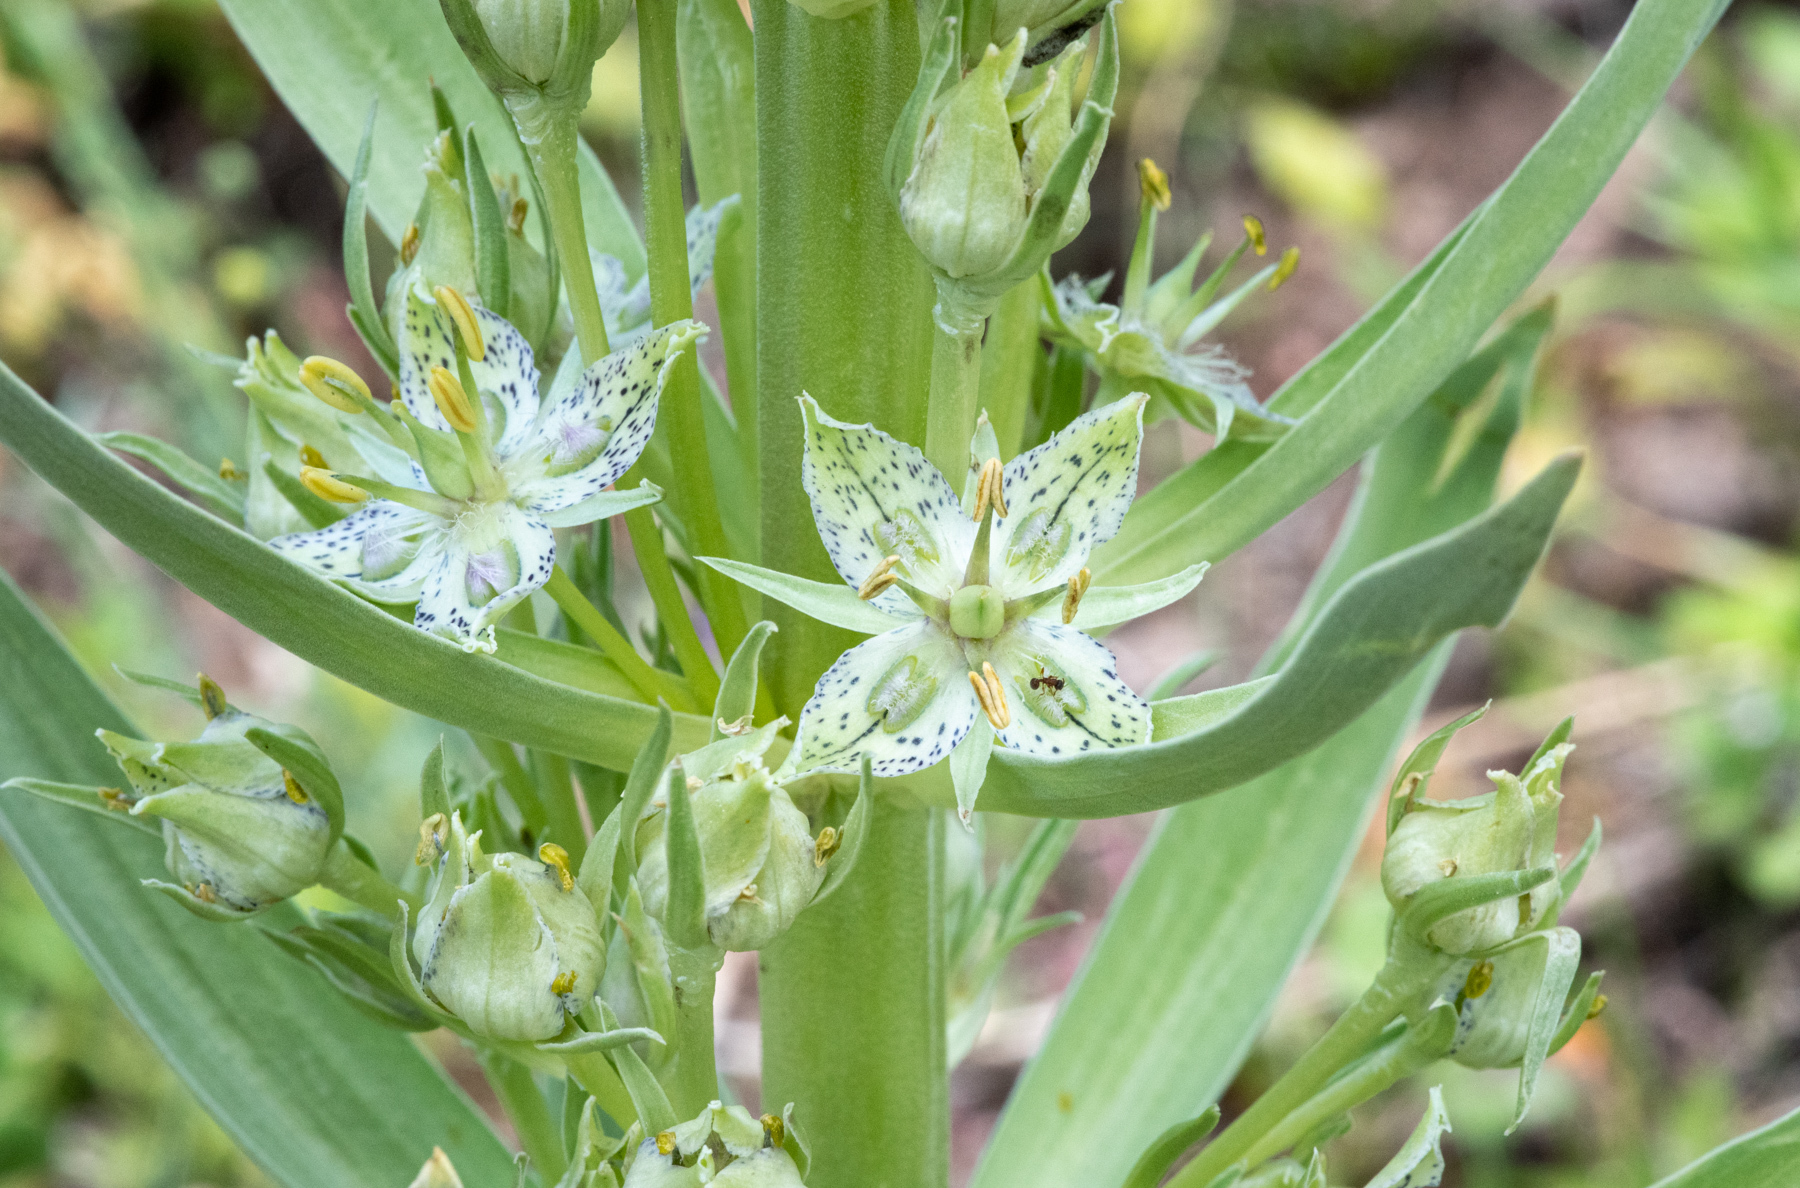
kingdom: Plantae
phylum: Tracheophyta
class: Magnoliopsida
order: Gentianales
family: Gentianaceae
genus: Frasera
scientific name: Frasera speciosa
